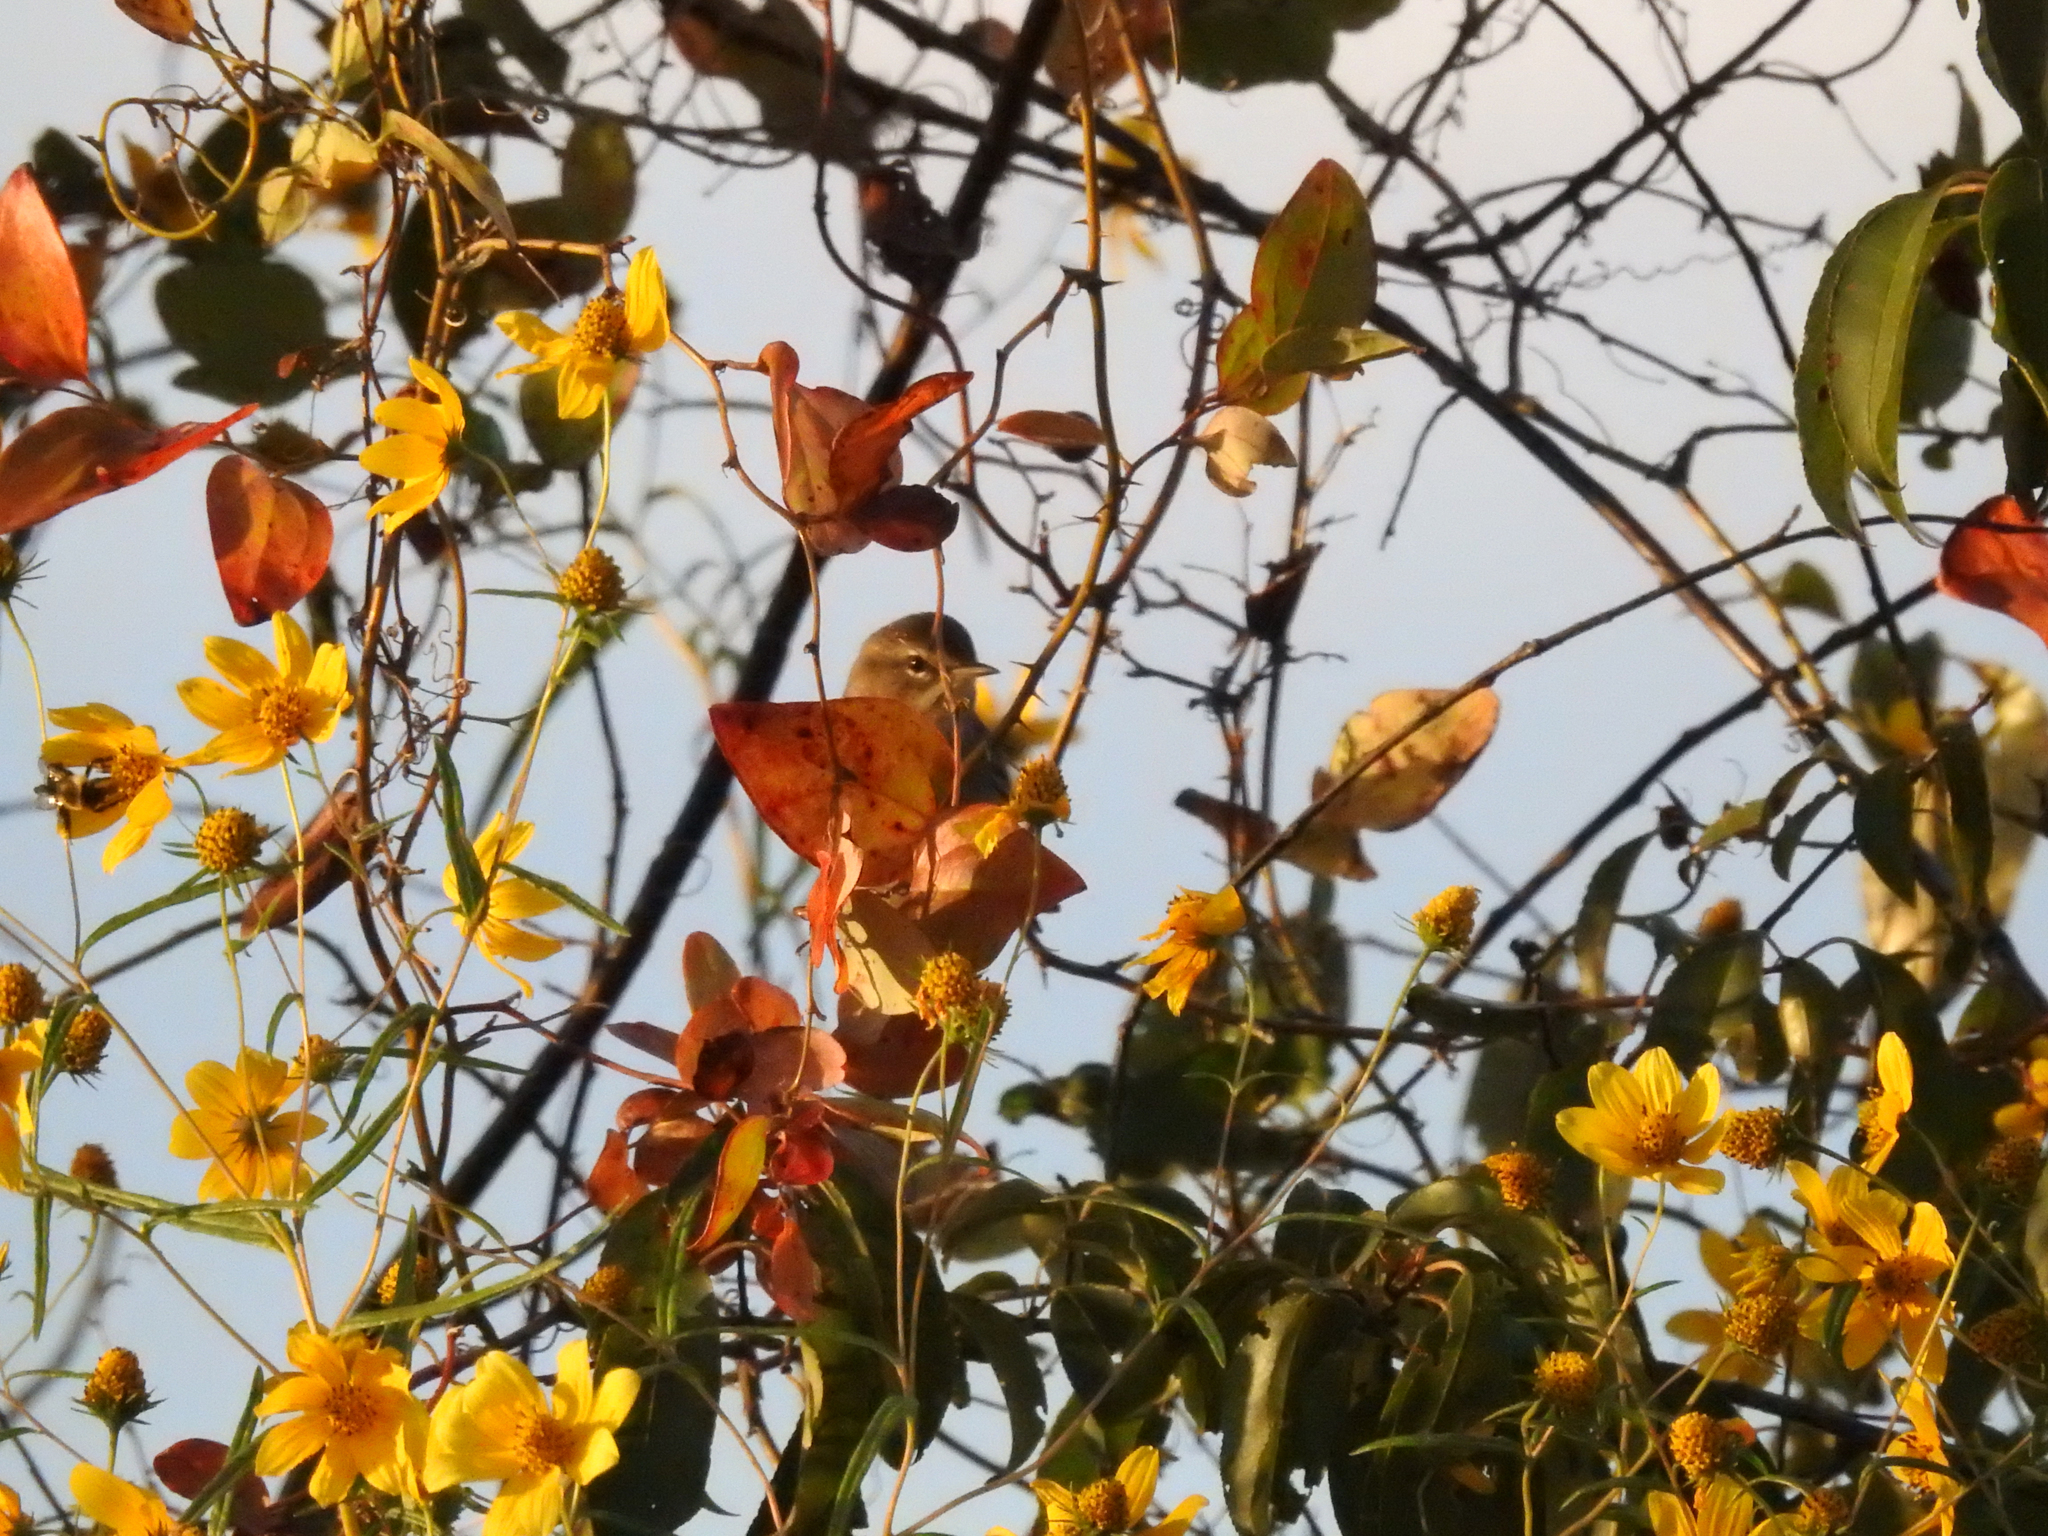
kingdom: Animalia
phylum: Chordata
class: Aves
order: Passeriformes
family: Parulidae
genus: Setophaga
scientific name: Setophaga palmarum
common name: Palm warbler
